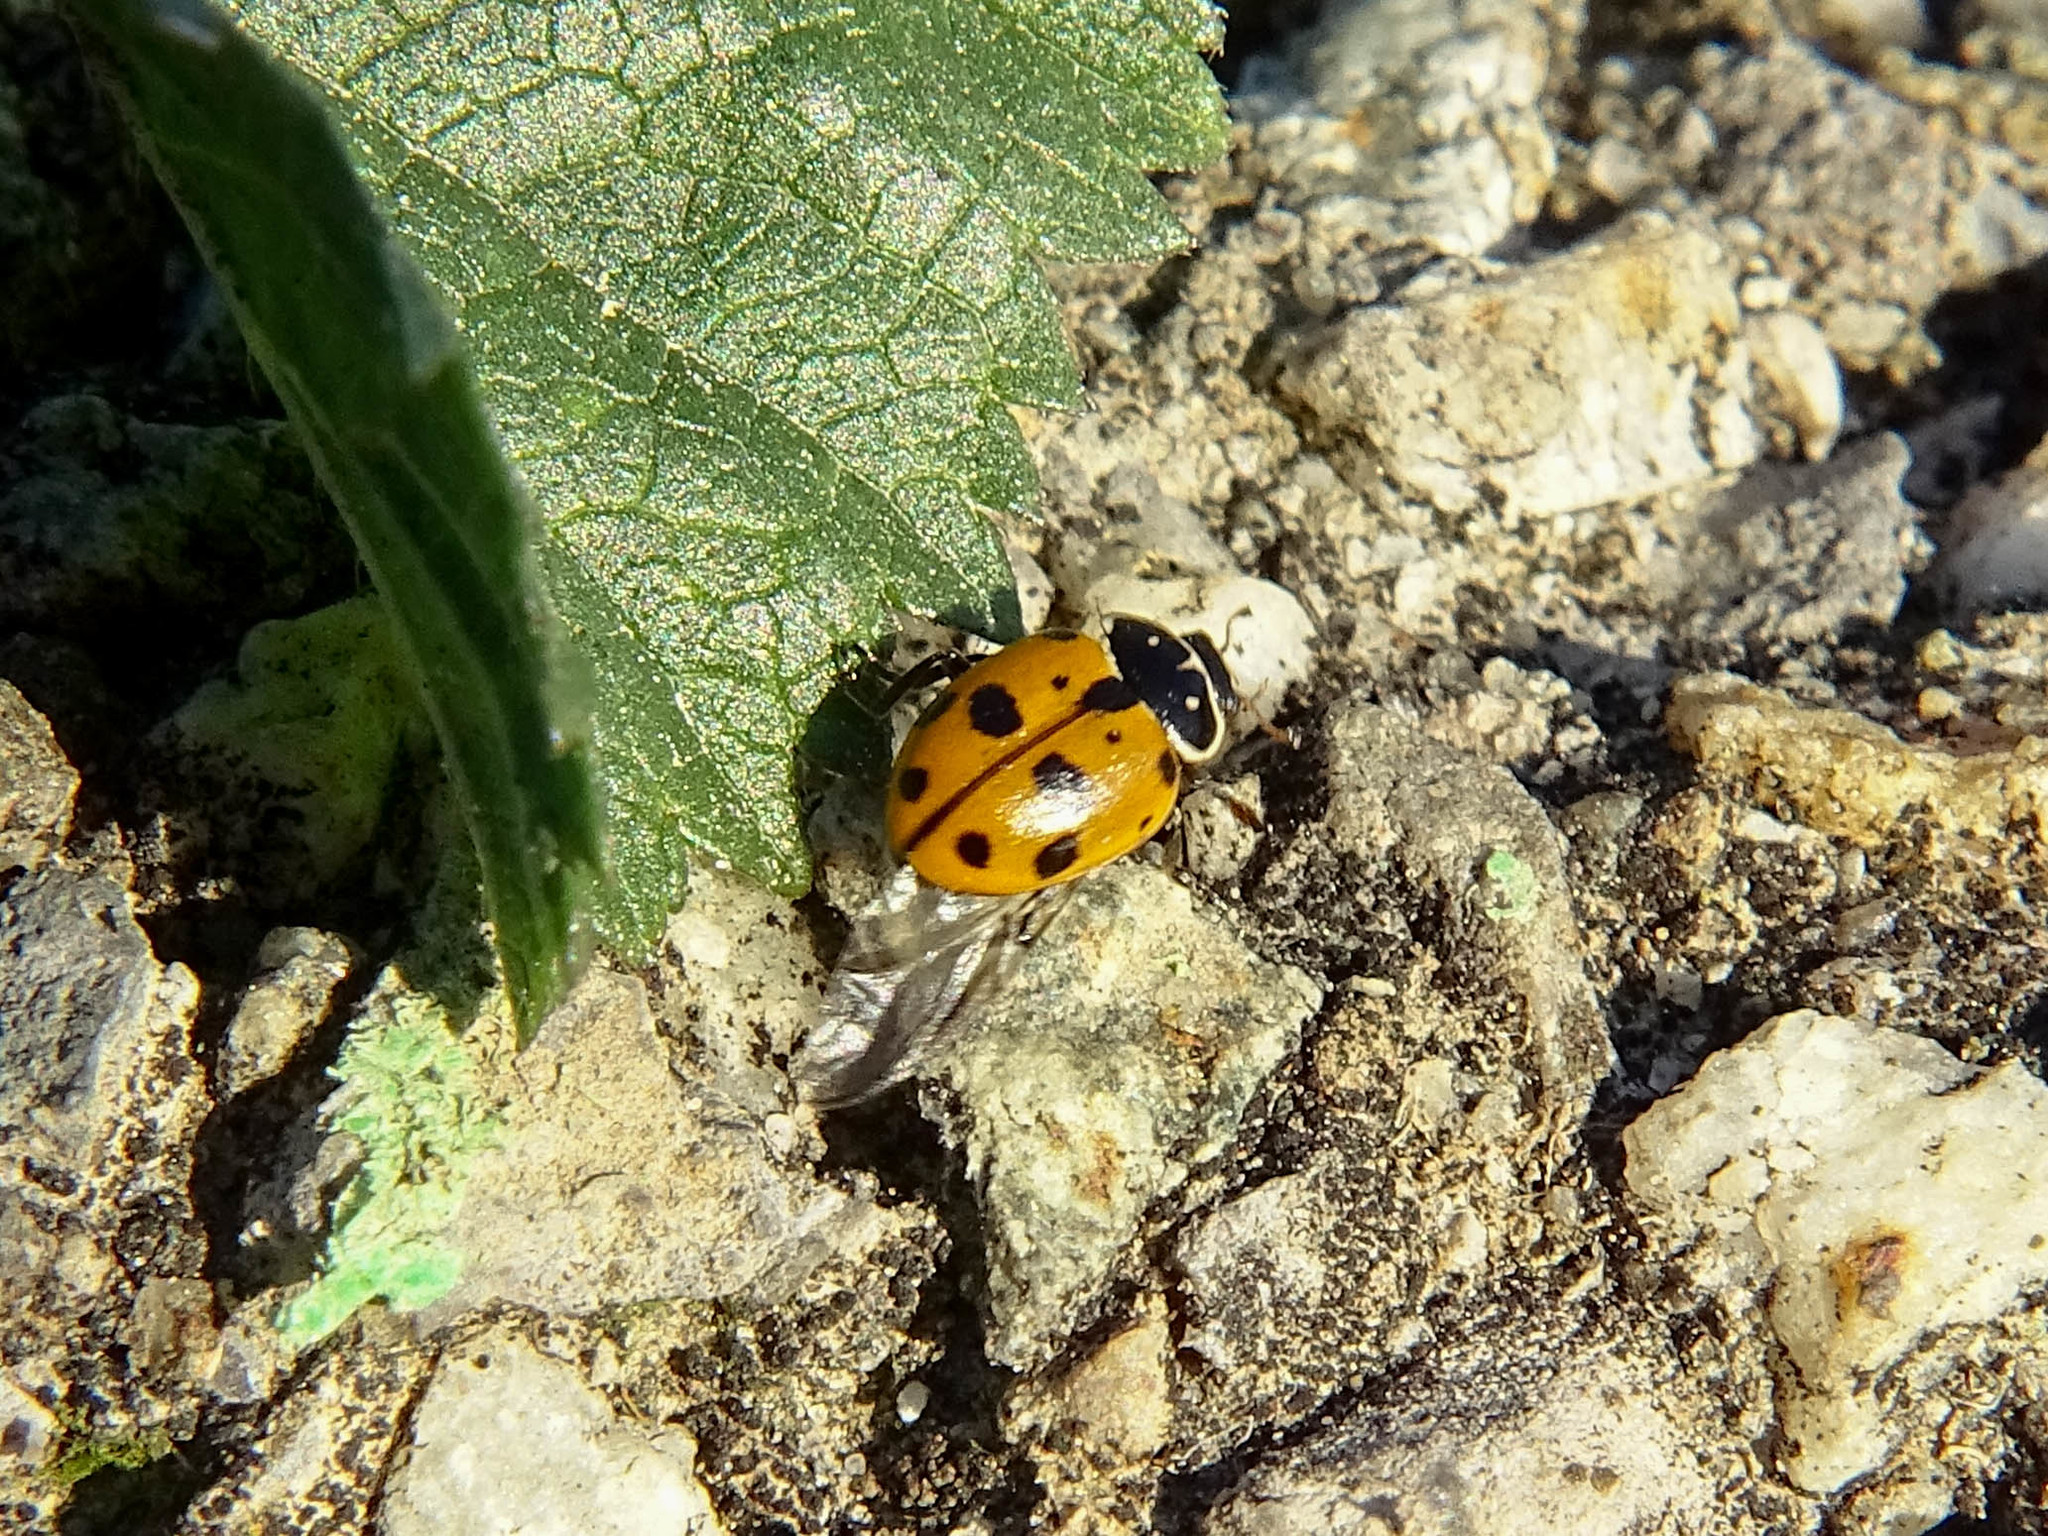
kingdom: Animalia
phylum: Arthropoda
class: Insecta
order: Coleoptera
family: Coccinellidae
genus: Hippodamia
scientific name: Hippodamia variegata
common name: Ladybird beetle
